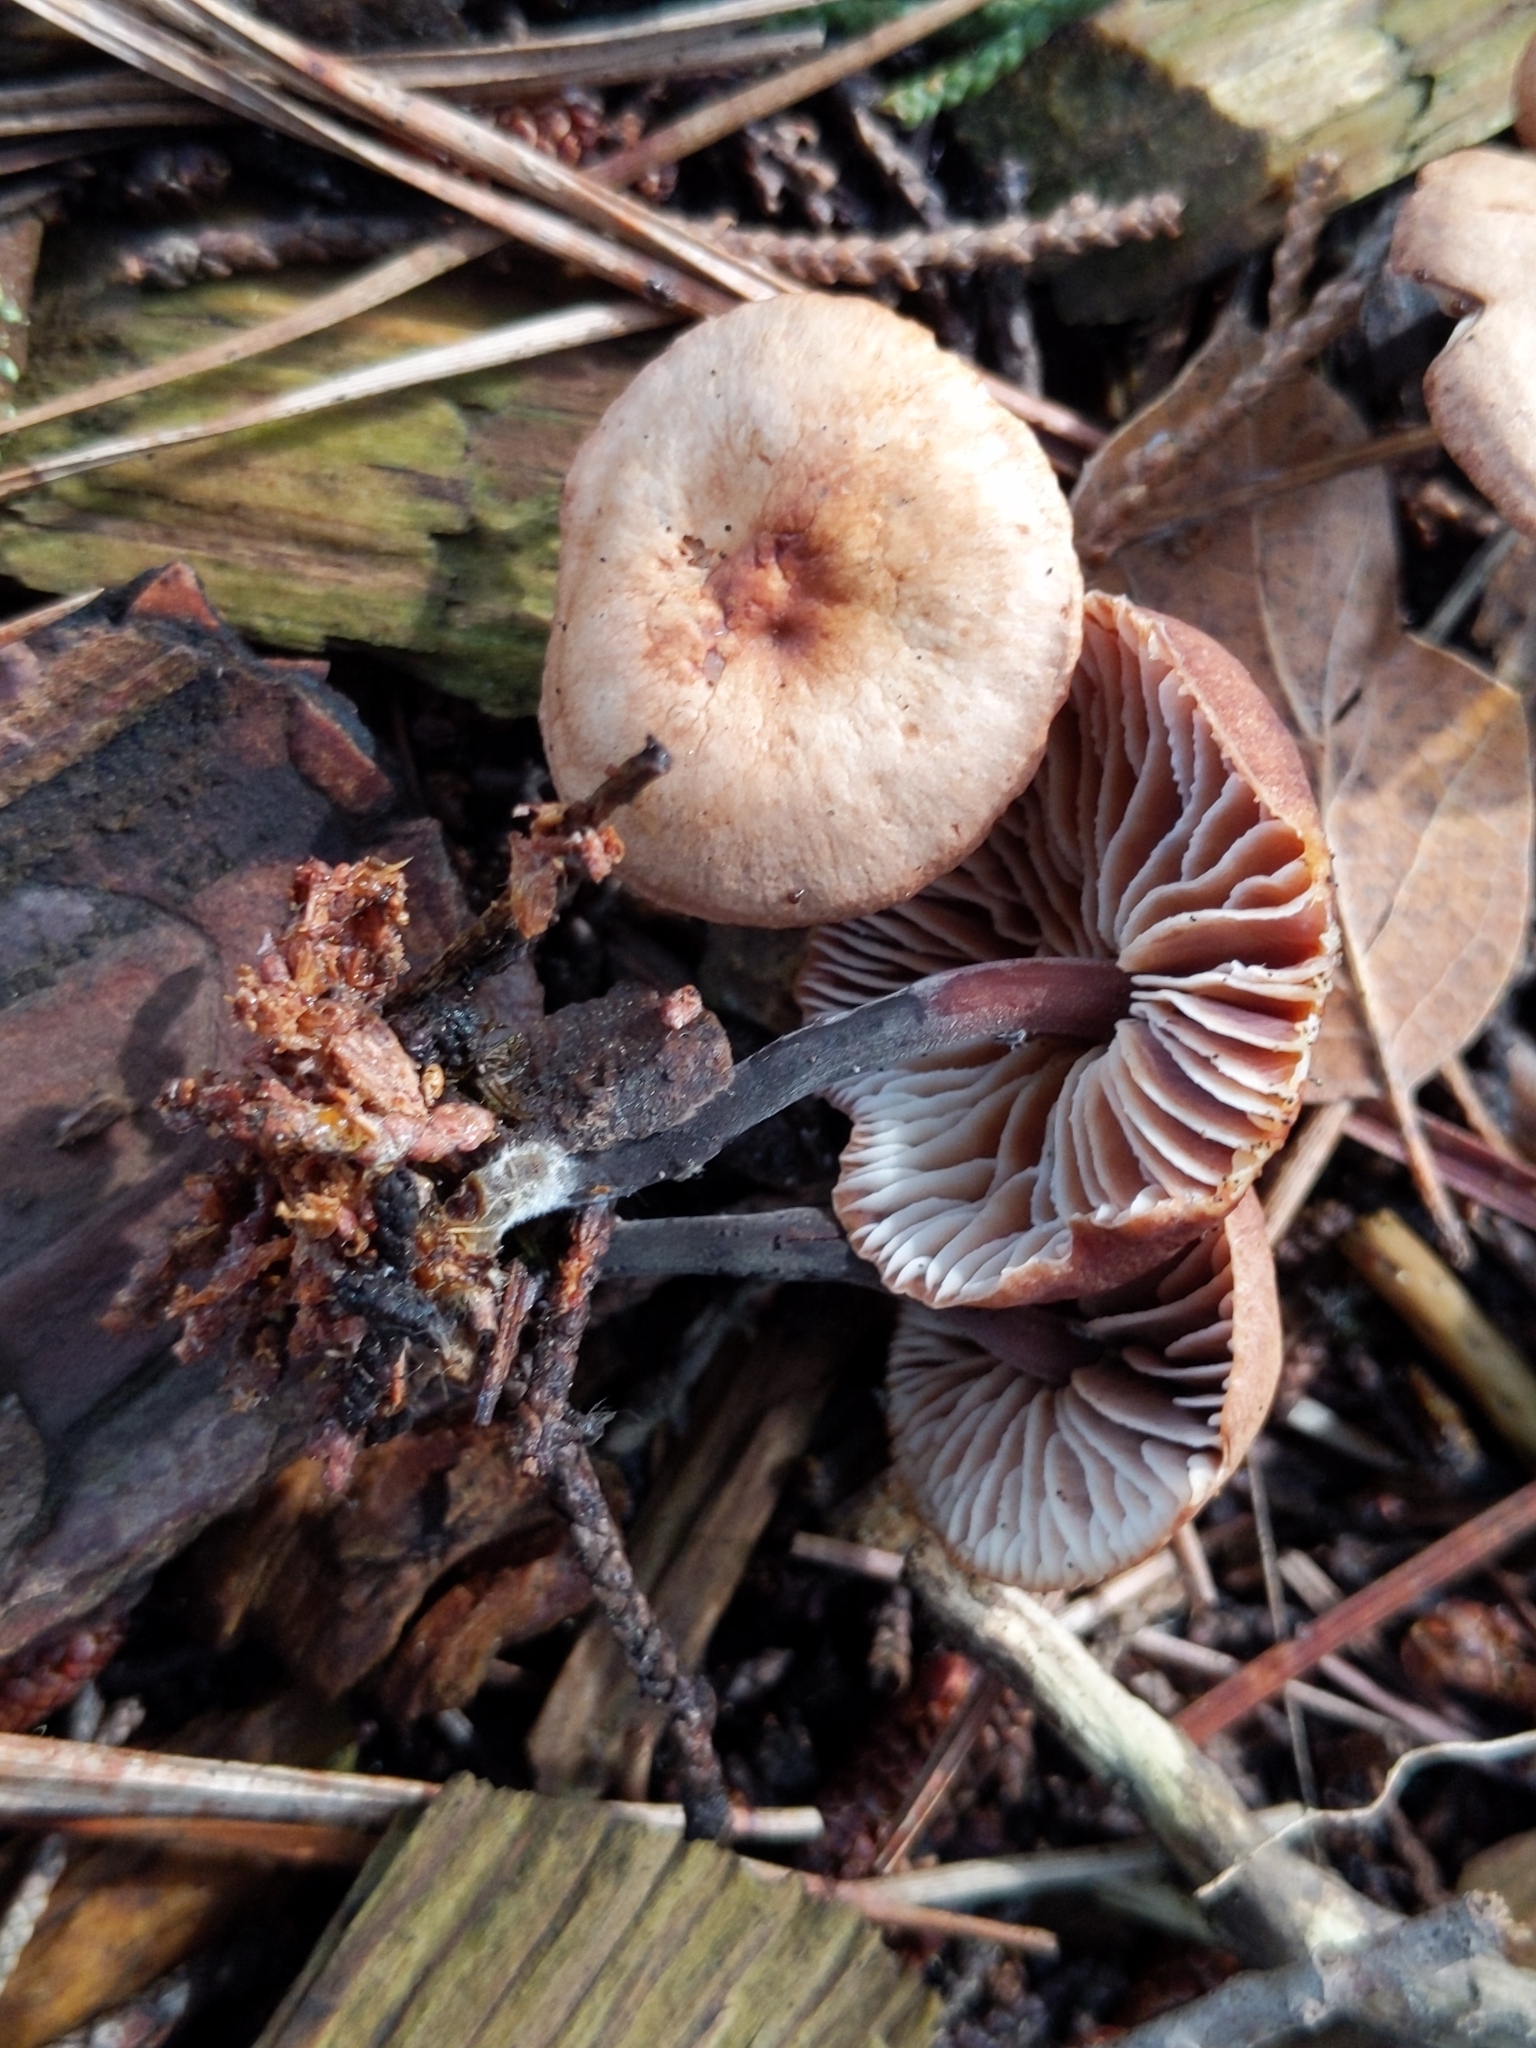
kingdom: Fungi
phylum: Basidiomycota
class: Agaricomycetes
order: Agaricales
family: Omphalotaceae
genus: Gymnopus
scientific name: Gymnopus brassicolens
